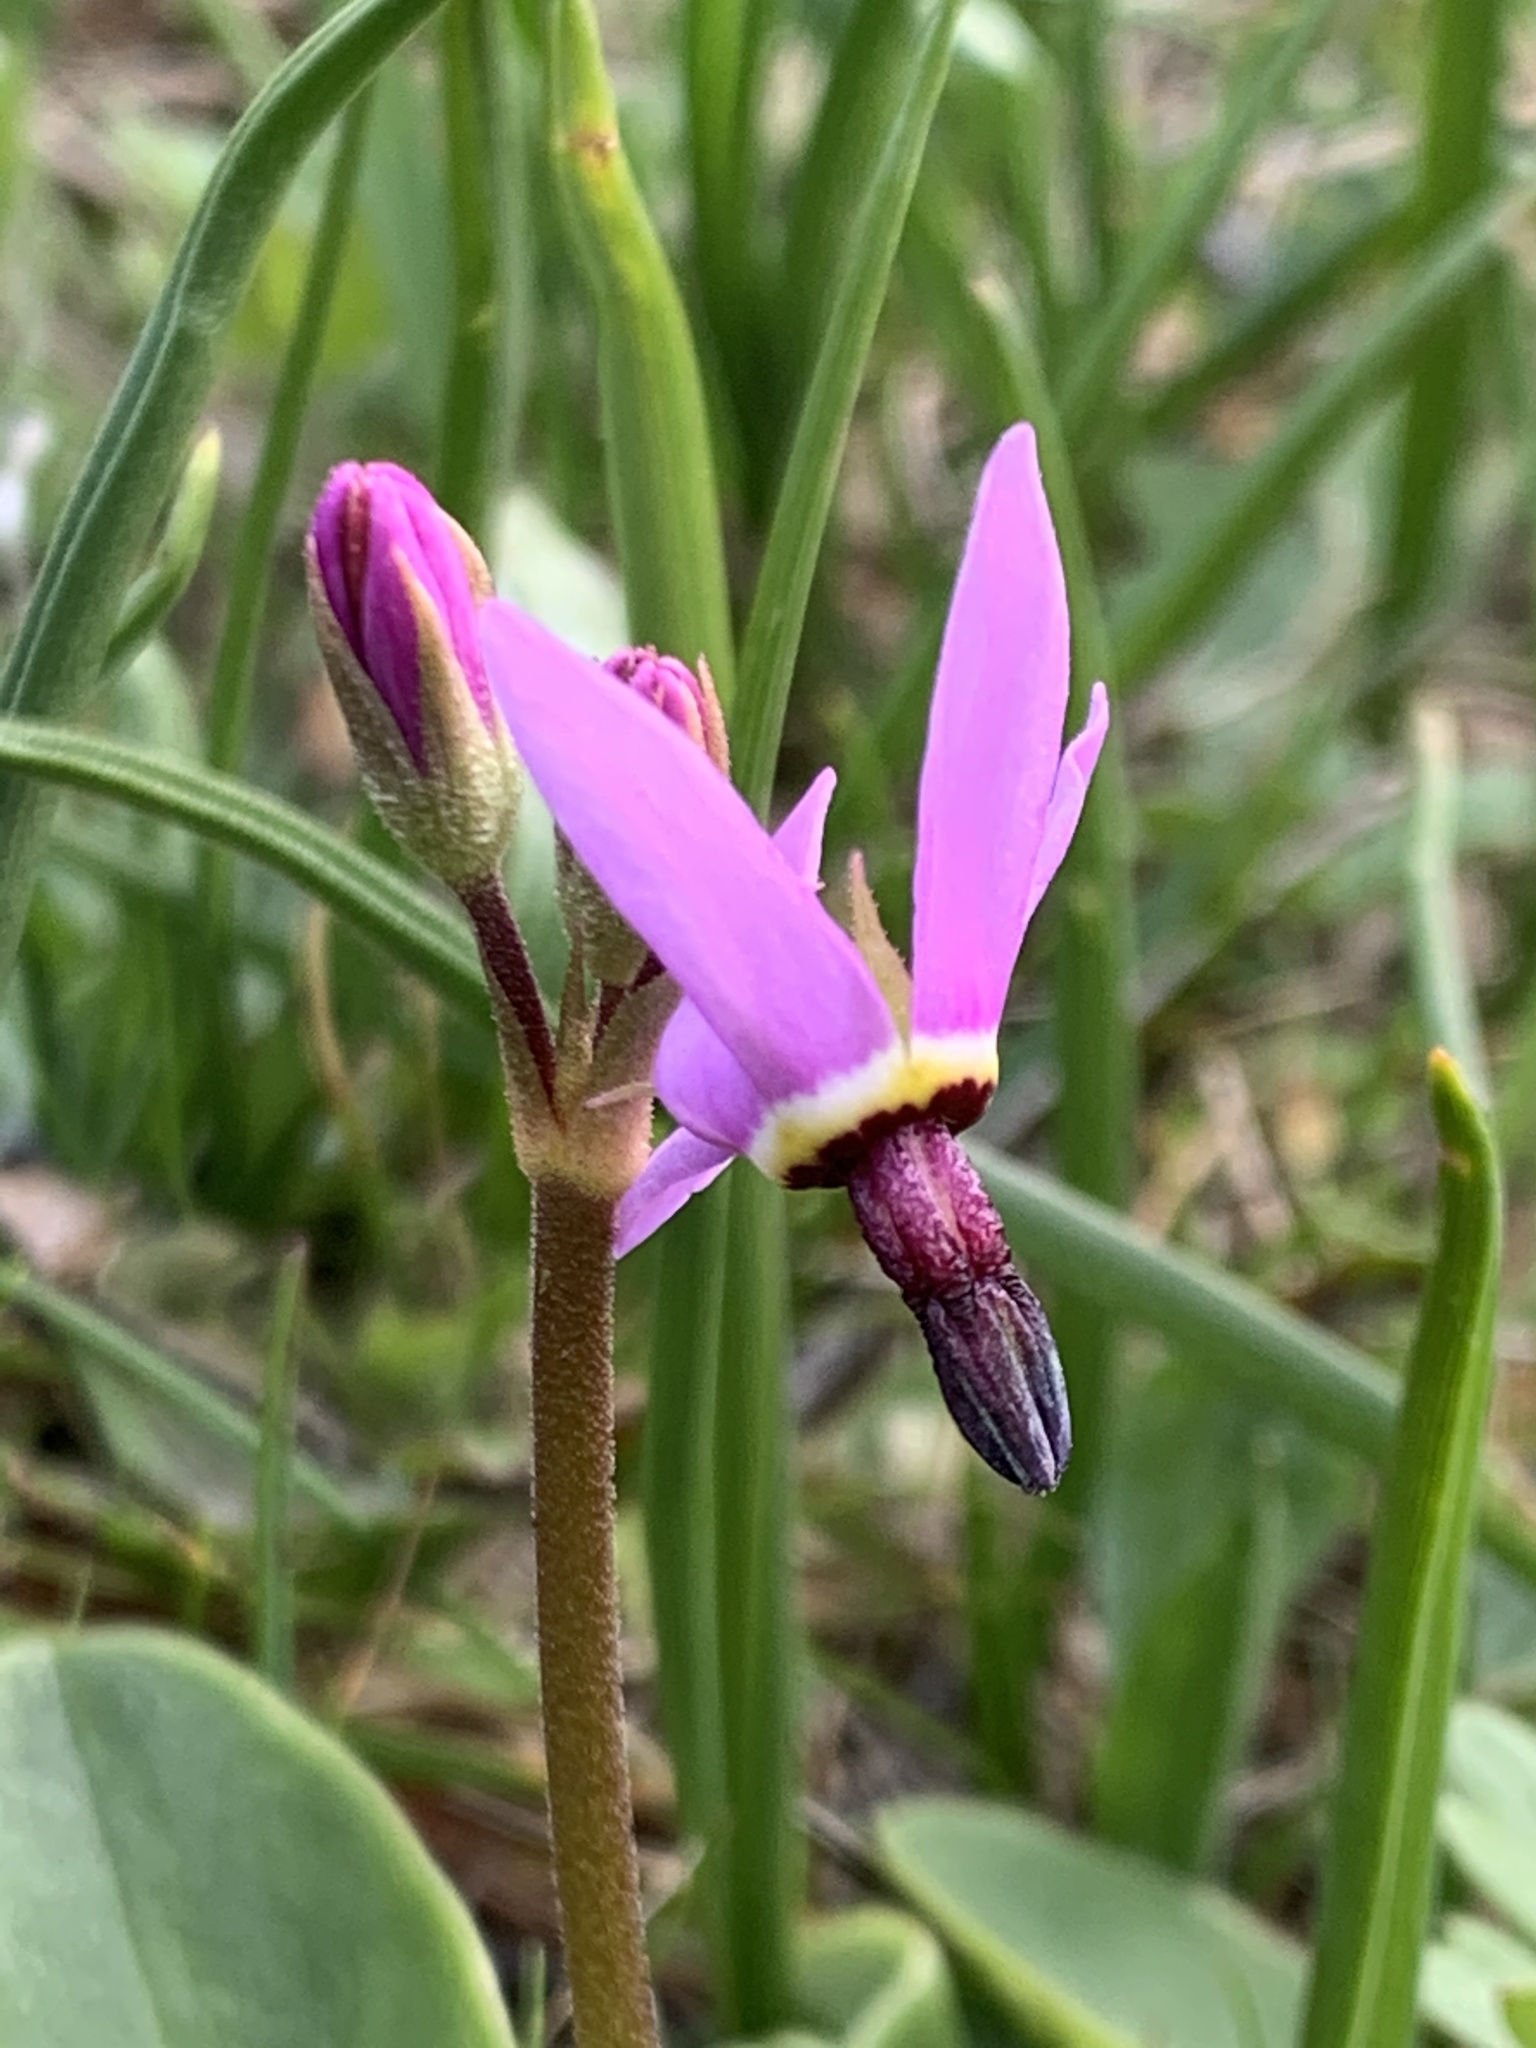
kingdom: Plantae
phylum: Tracheophyta
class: Magnoliopsida
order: Ericales
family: Primulaceae
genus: Dodecatheon
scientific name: Dodecatheon hendersonii
